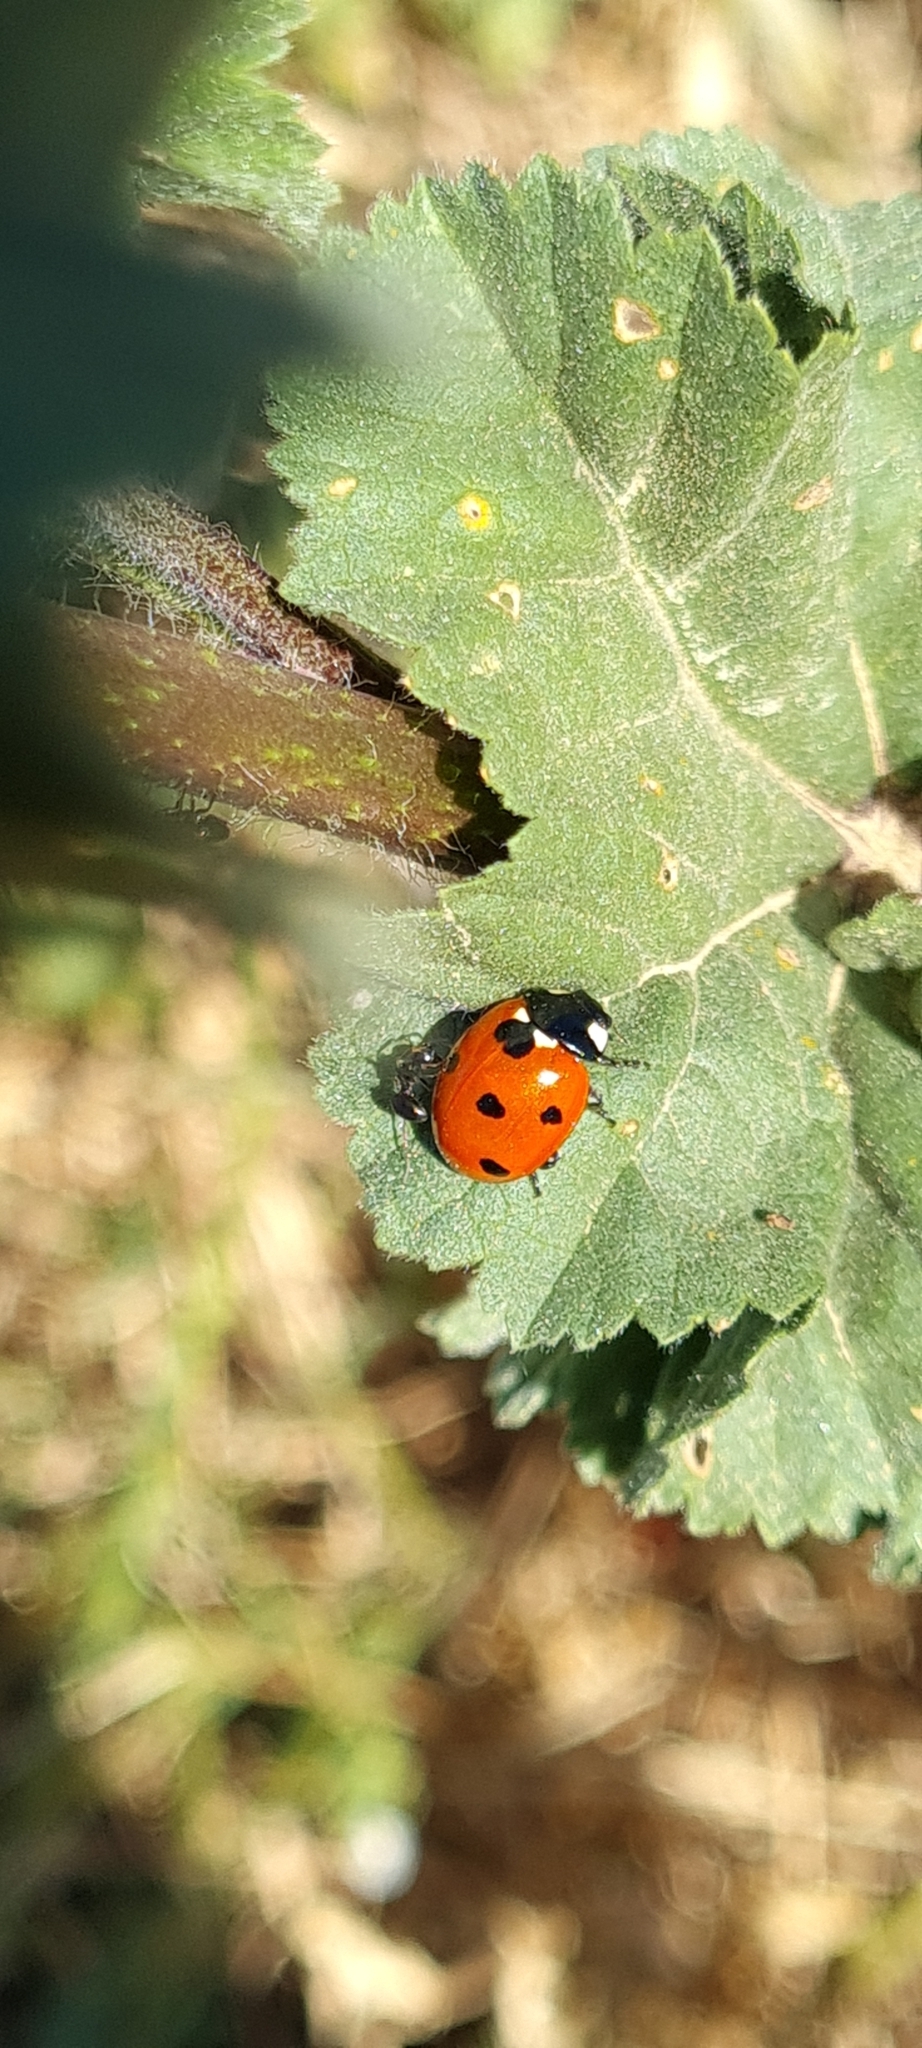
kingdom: Animalia
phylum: Arthropoda
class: Insecta
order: Coleoptera
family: Coccinellidae
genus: Coccinella
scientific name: Coccinella septempunctata
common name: Sevenspotted lady beetle
